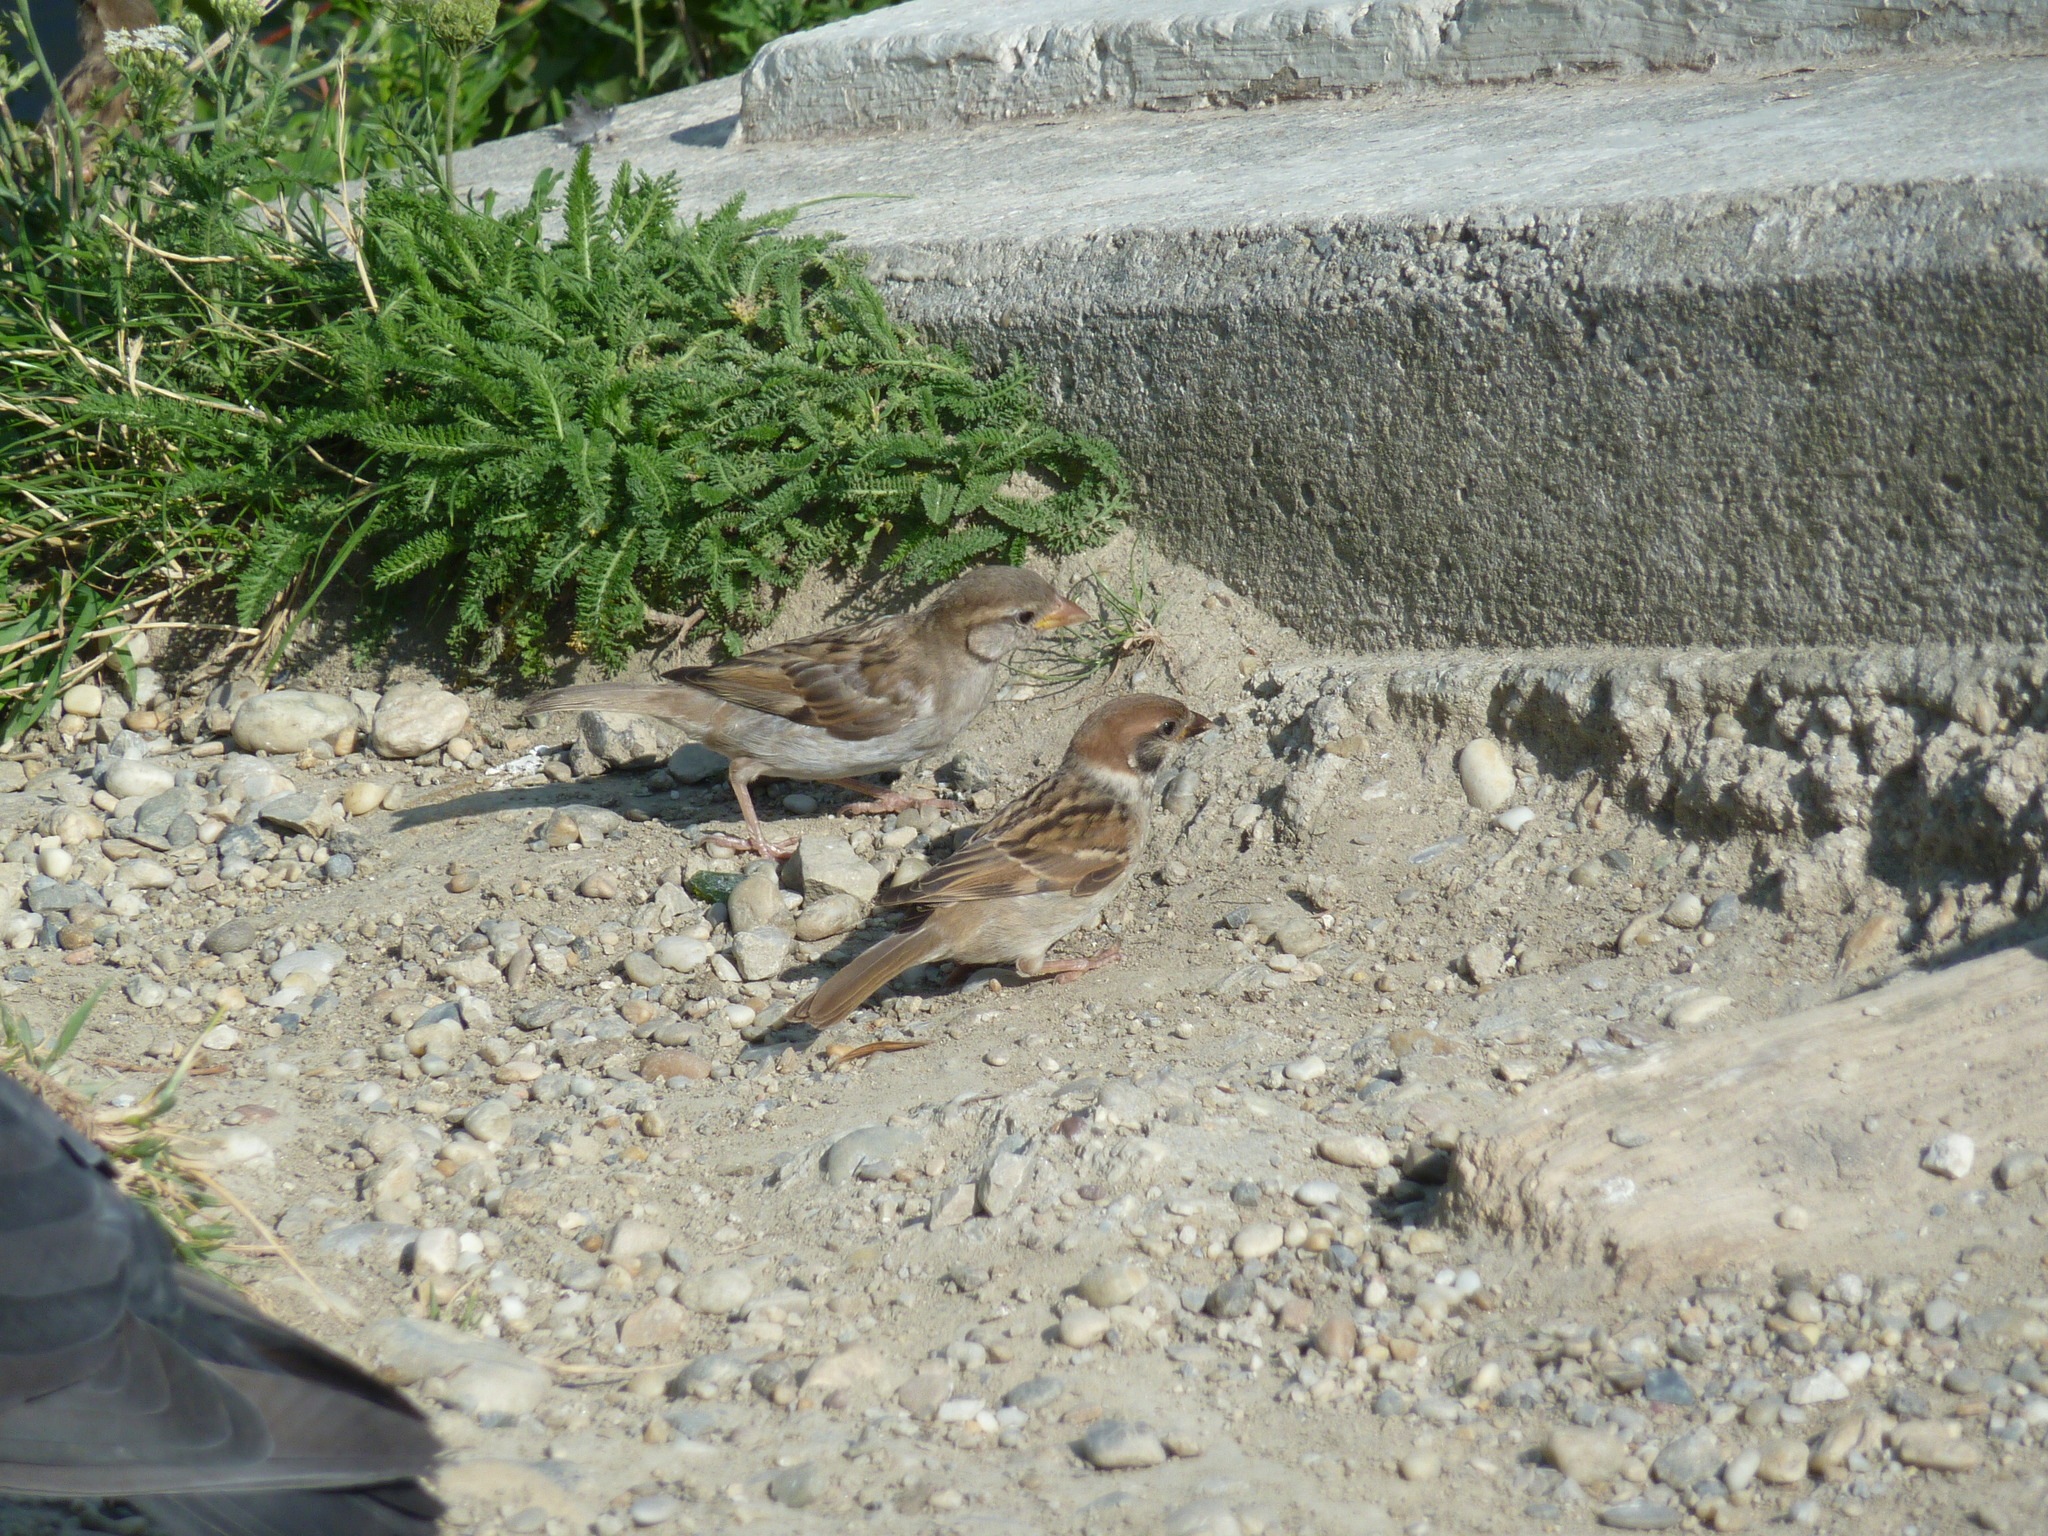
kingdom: Animalia
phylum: Chordata
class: Aves
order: Passeriformes
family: Passeridae
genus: Passer
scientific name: Passer montanus
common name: Eurasian tree sparrow
